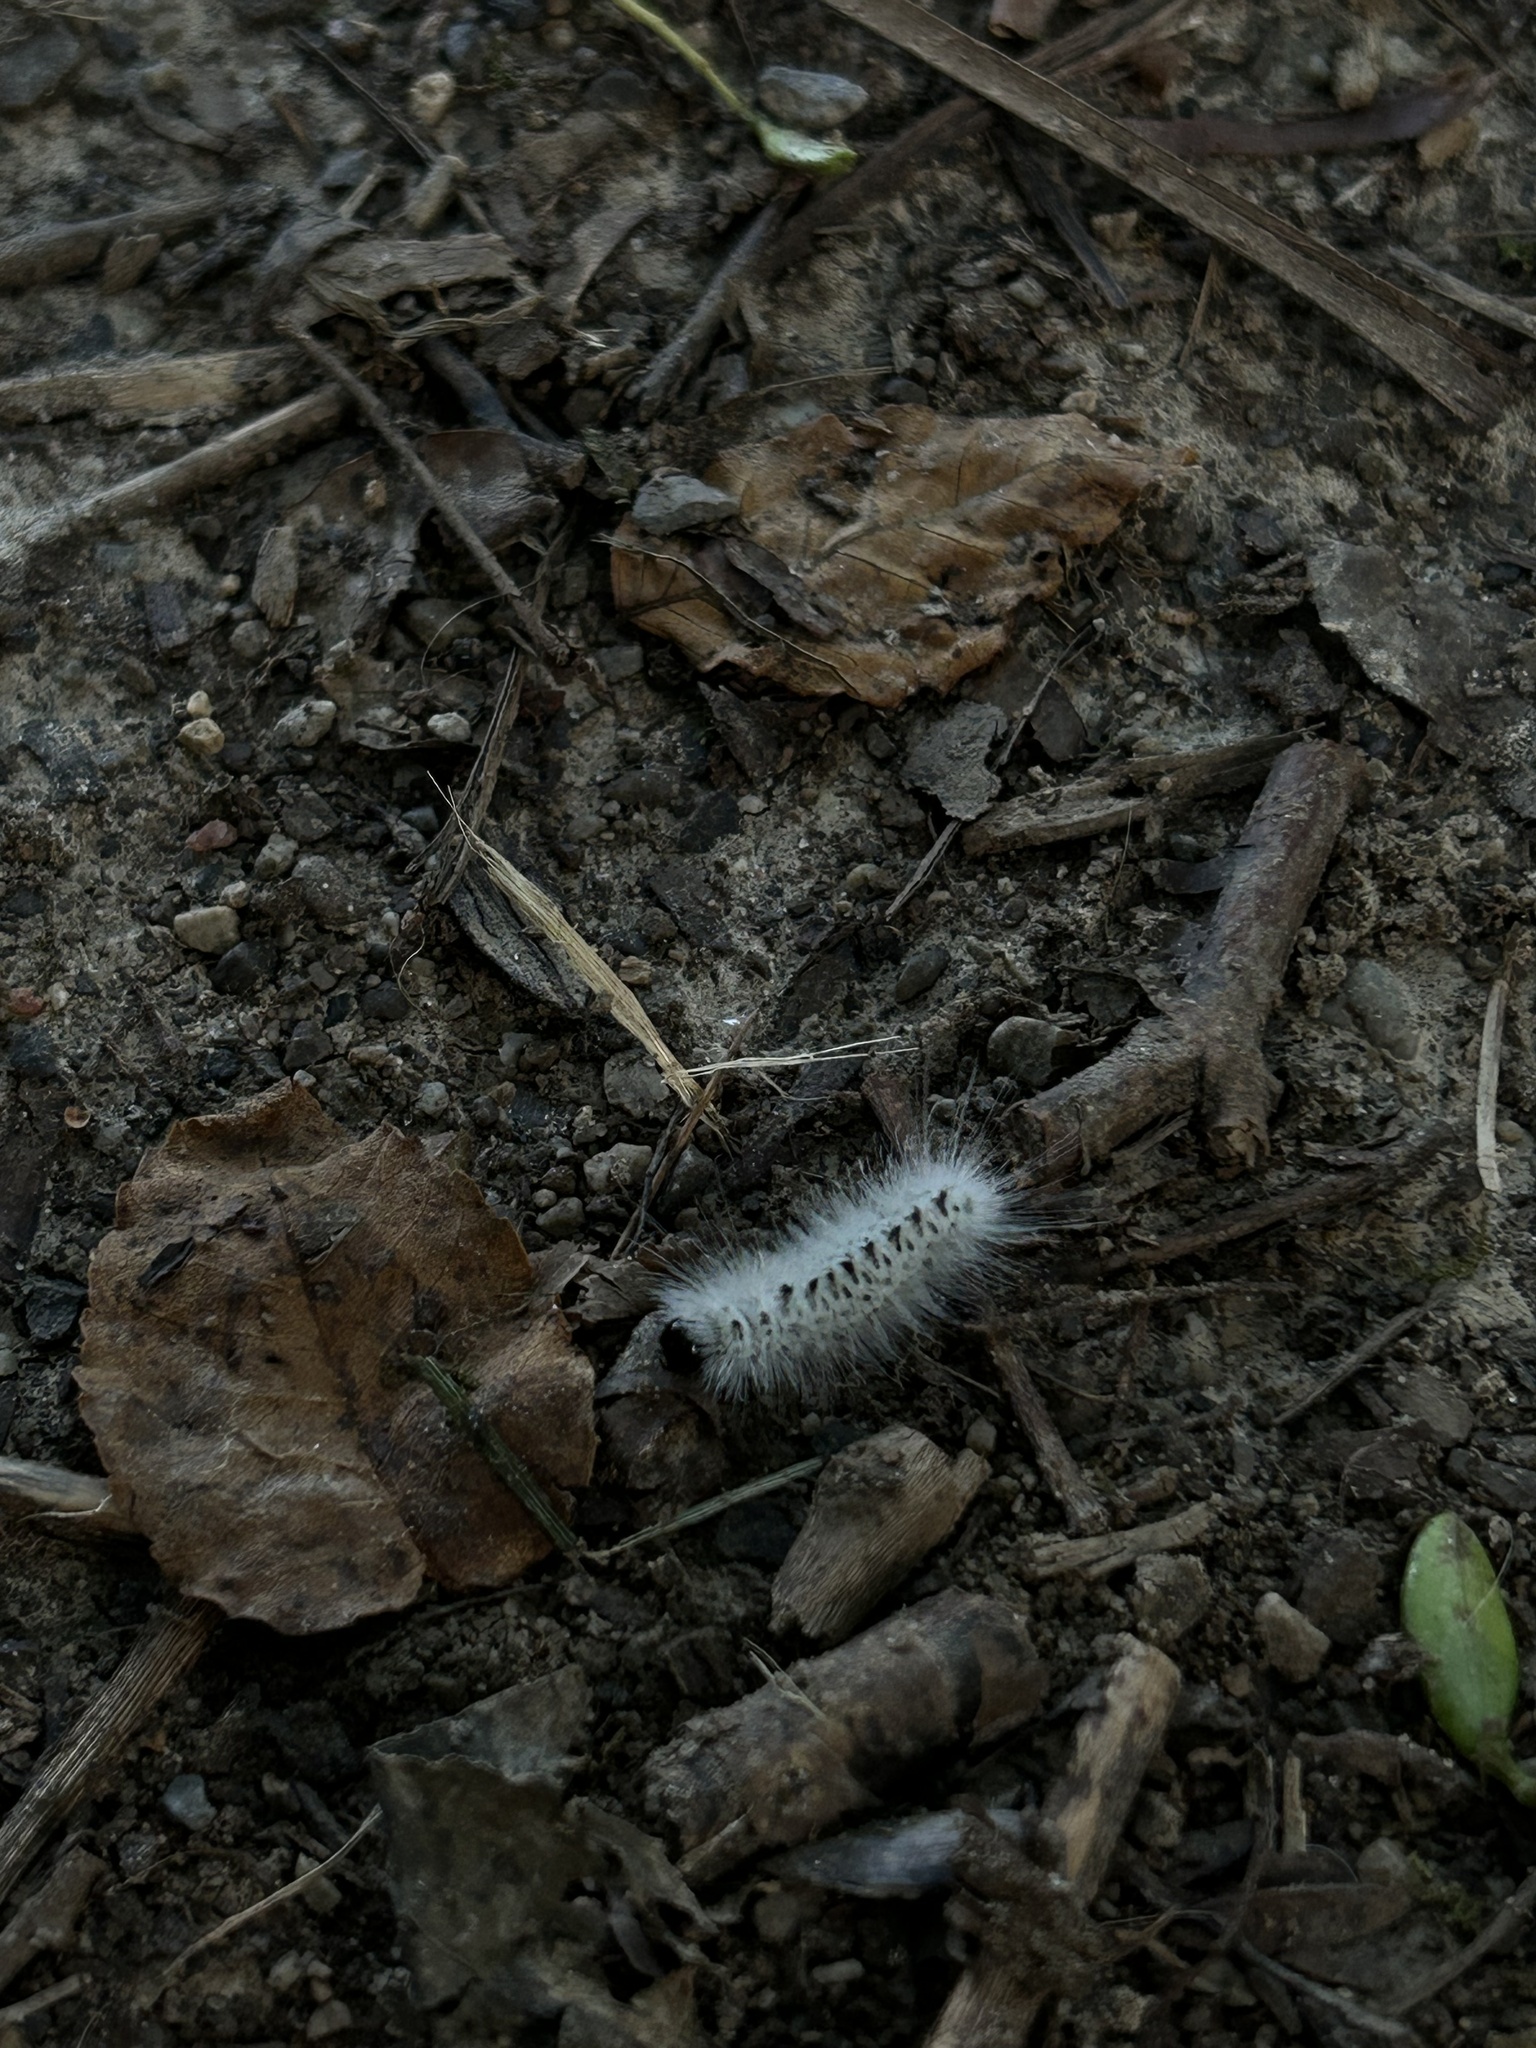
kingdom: Animalia
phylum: Arthropoda
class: Insecta
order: Lepidoptera
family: Erebidae
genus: Lophocampa
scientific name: Lophocampa caryae
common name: Hickory tussock moth
